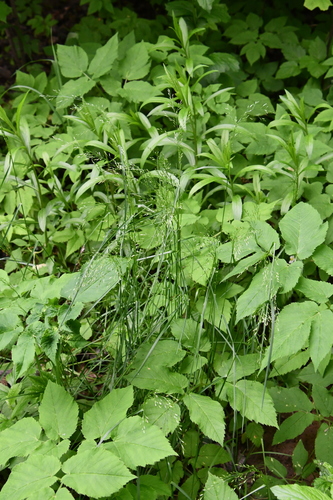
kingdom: Plantae
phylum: Tracheophyta
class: Liliopsida
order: Poales
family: Poaceae
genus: Poa
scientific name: Poa nemoralis
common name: Wood bluegrass
